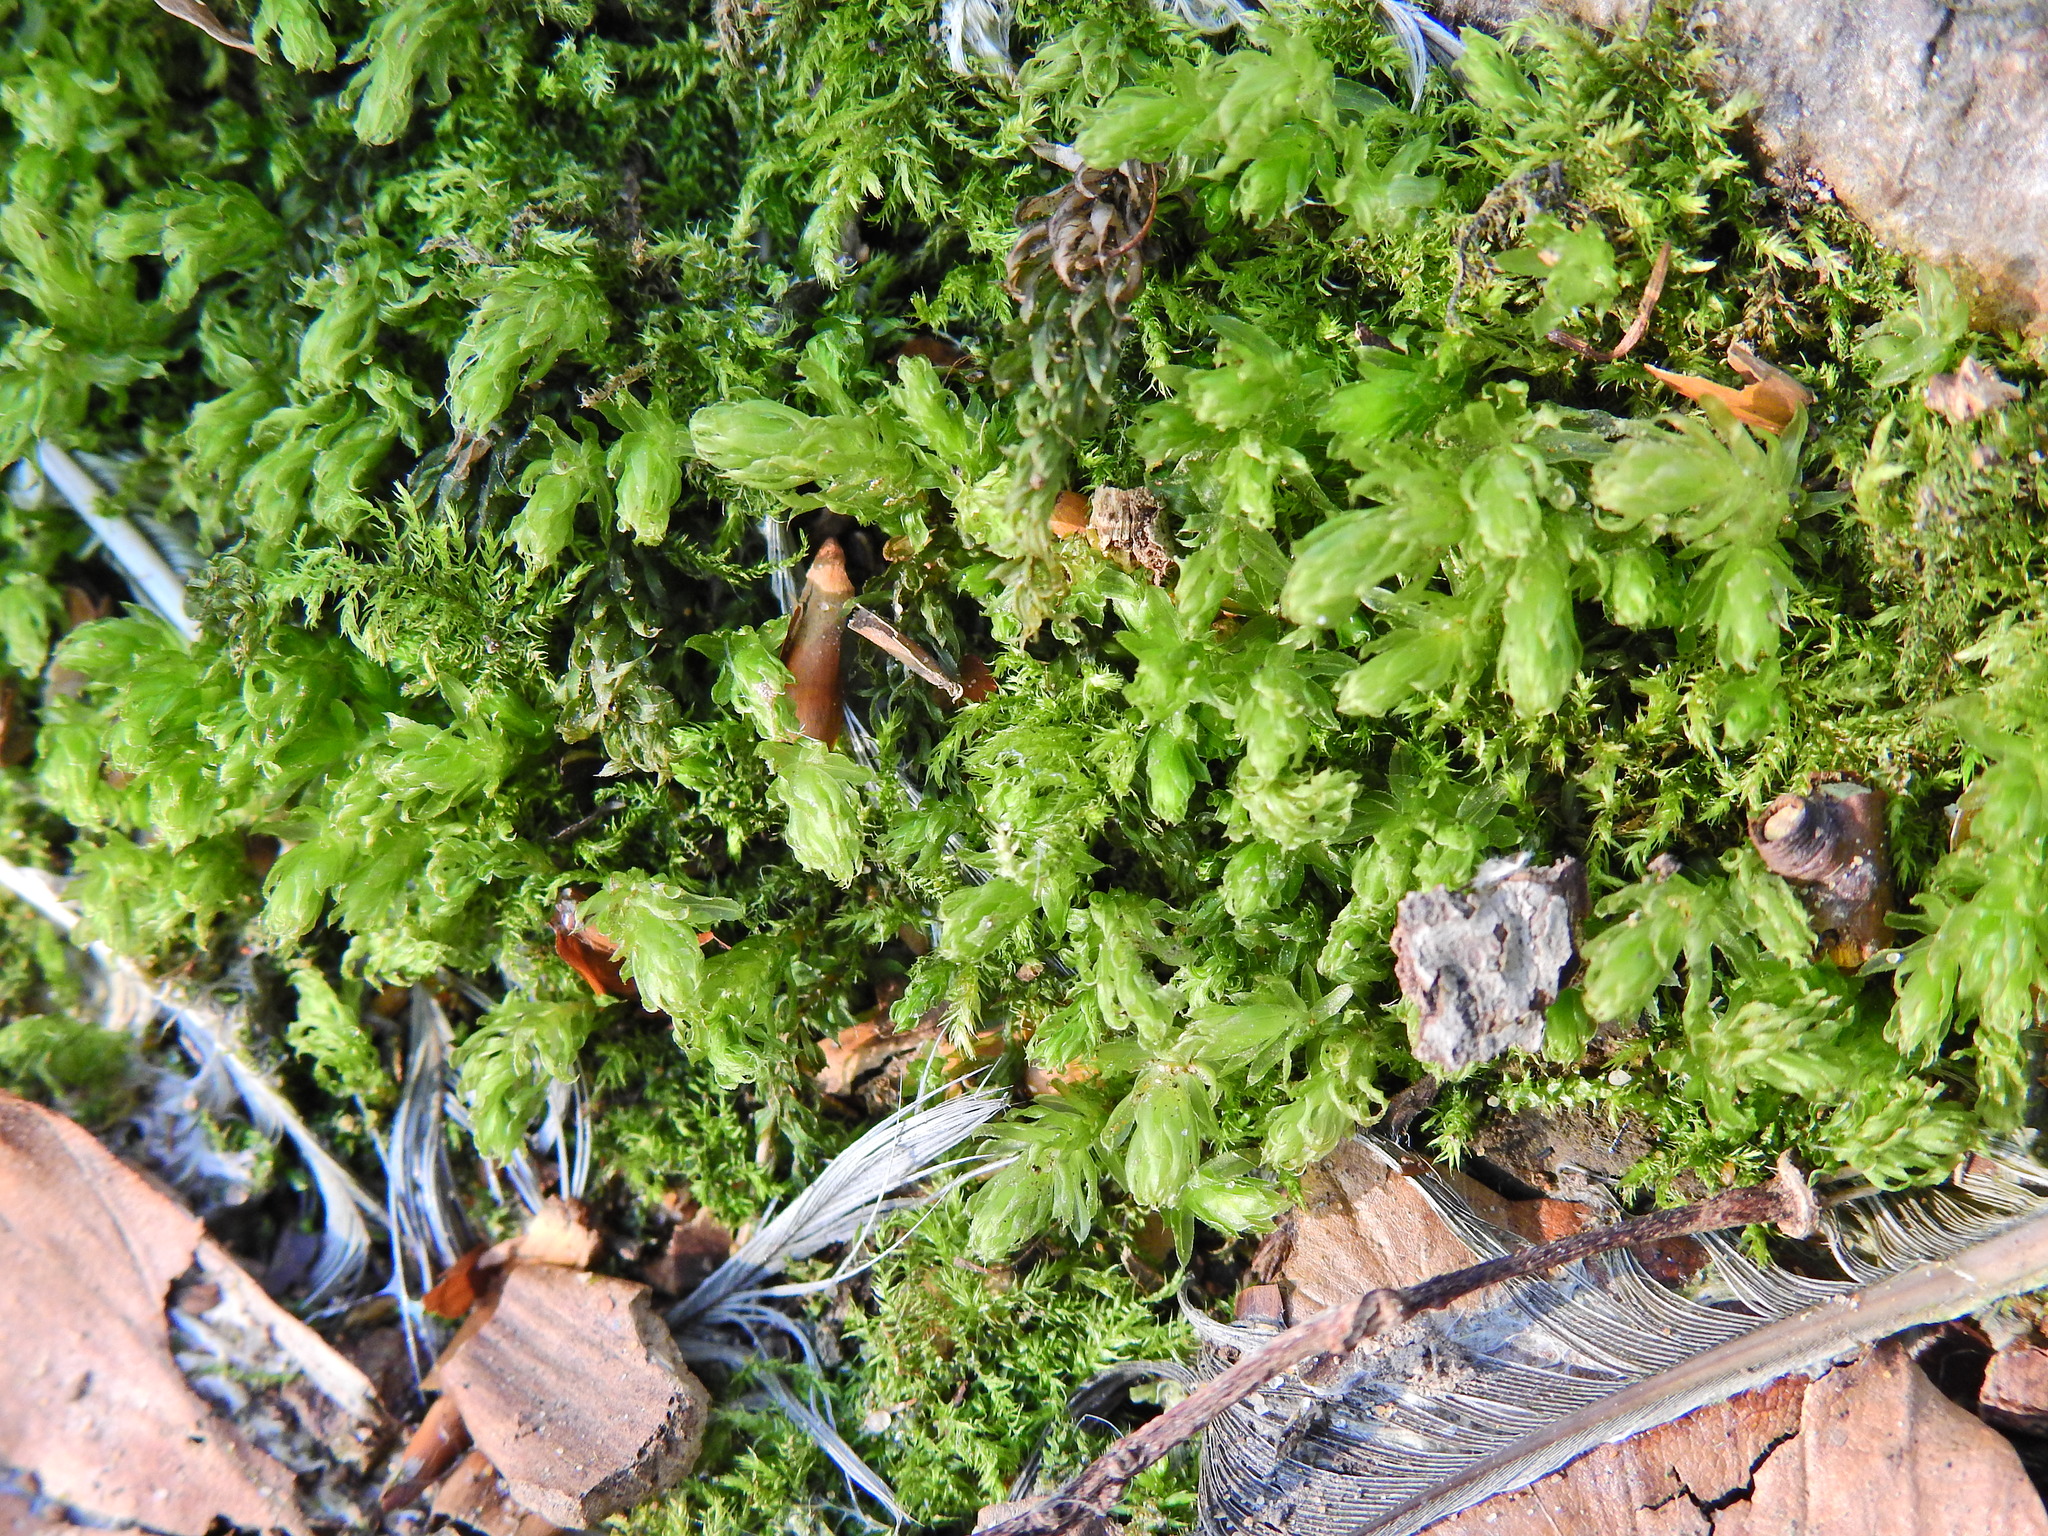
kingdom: Plantae
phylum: Bryophyta
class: Bryopsida
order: Bryales
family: Mniaceae
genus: Mnium
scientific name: Mnium hornum
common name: Swan's-neck leafy moss
